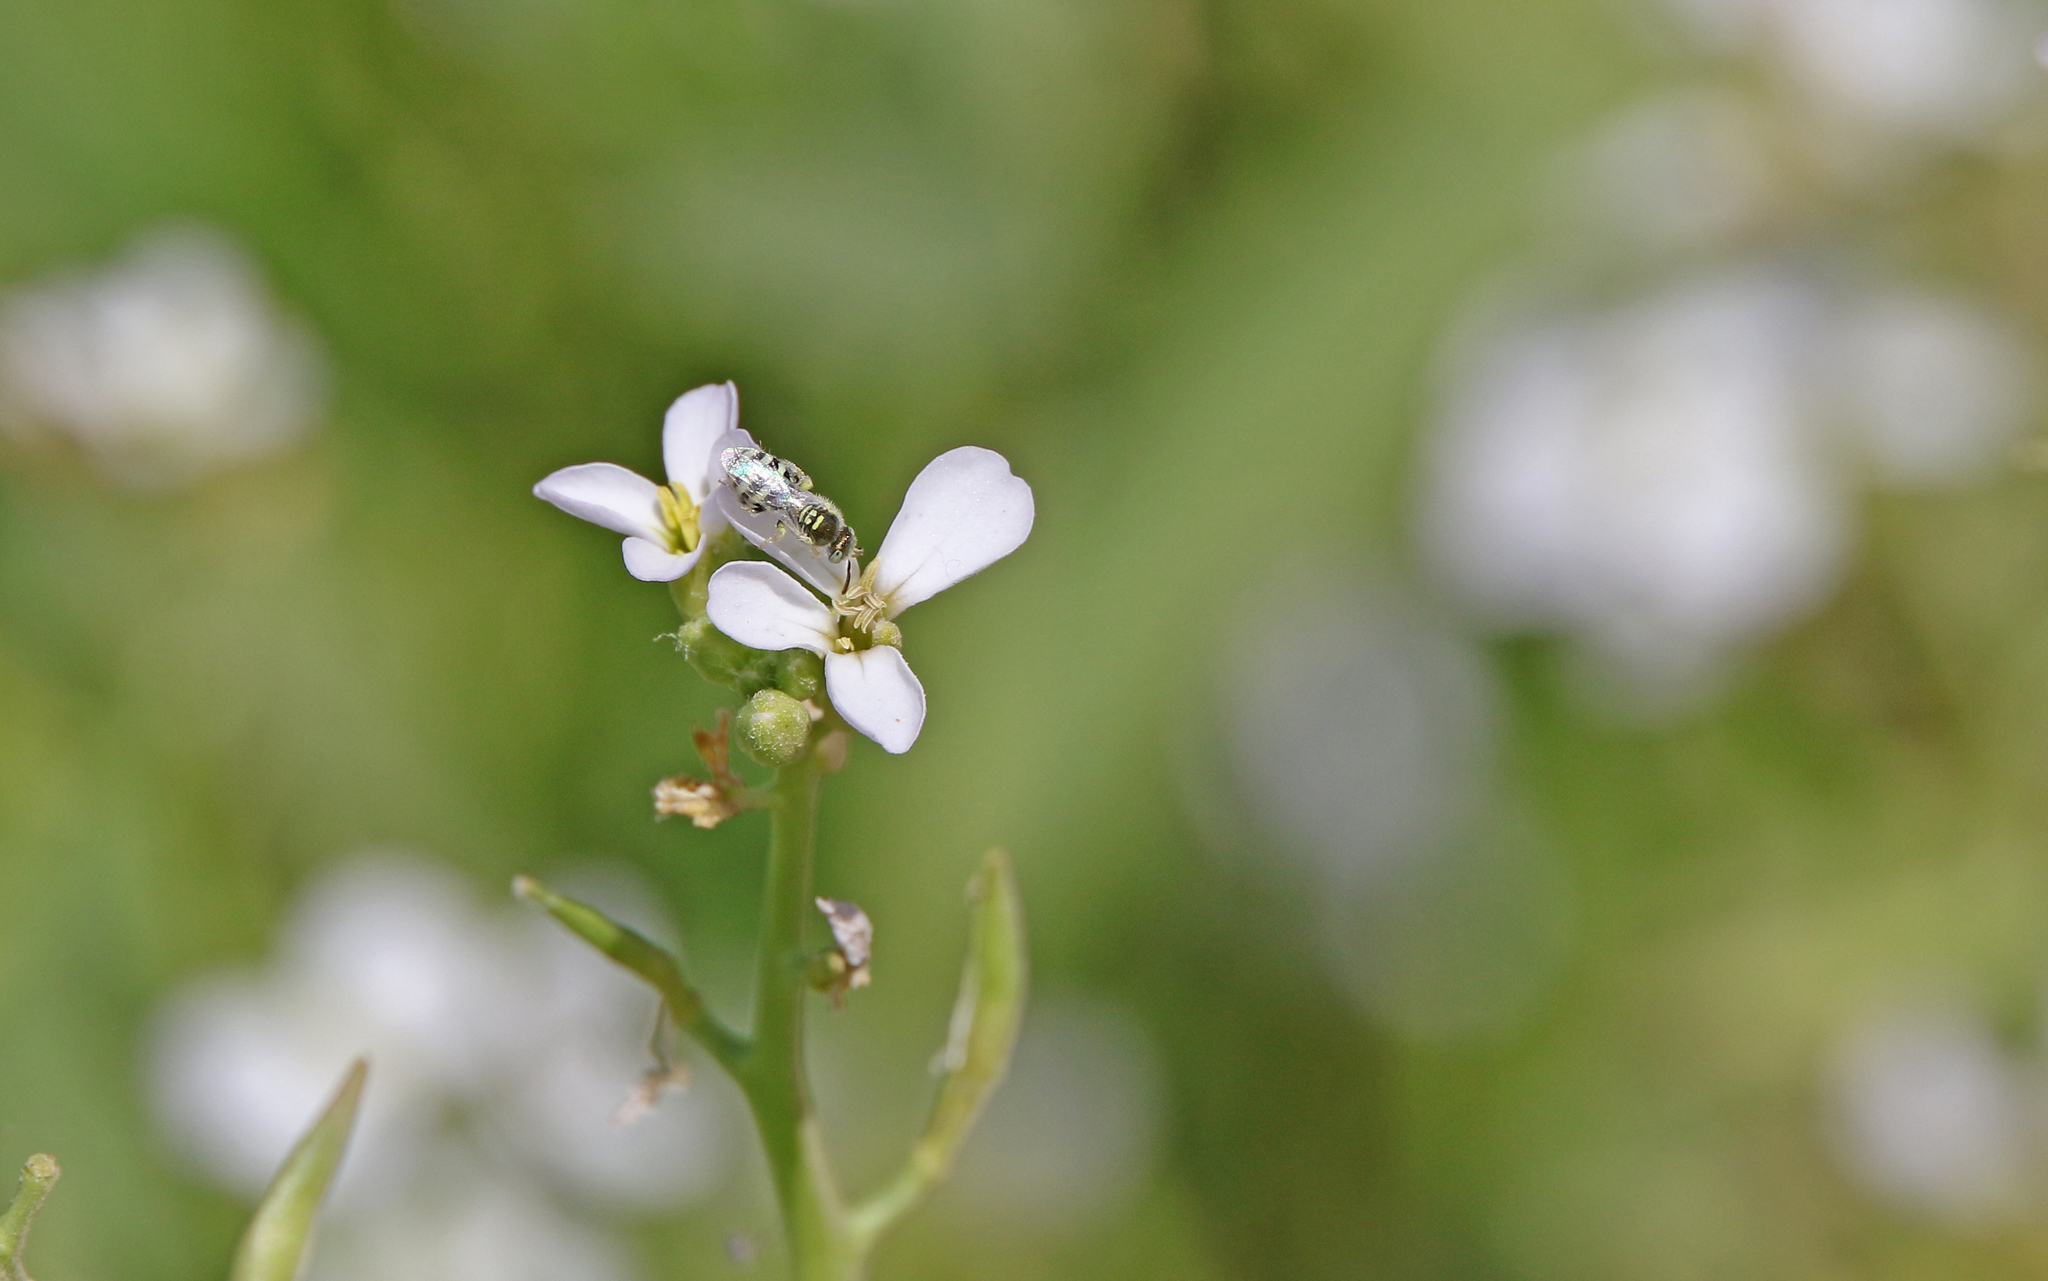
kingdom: Animalia
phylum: Arthropoda
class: Insecta
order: Hymenoptera
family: Halictidae
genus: Ceylalictus
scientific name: Ceylalictus variegatus
